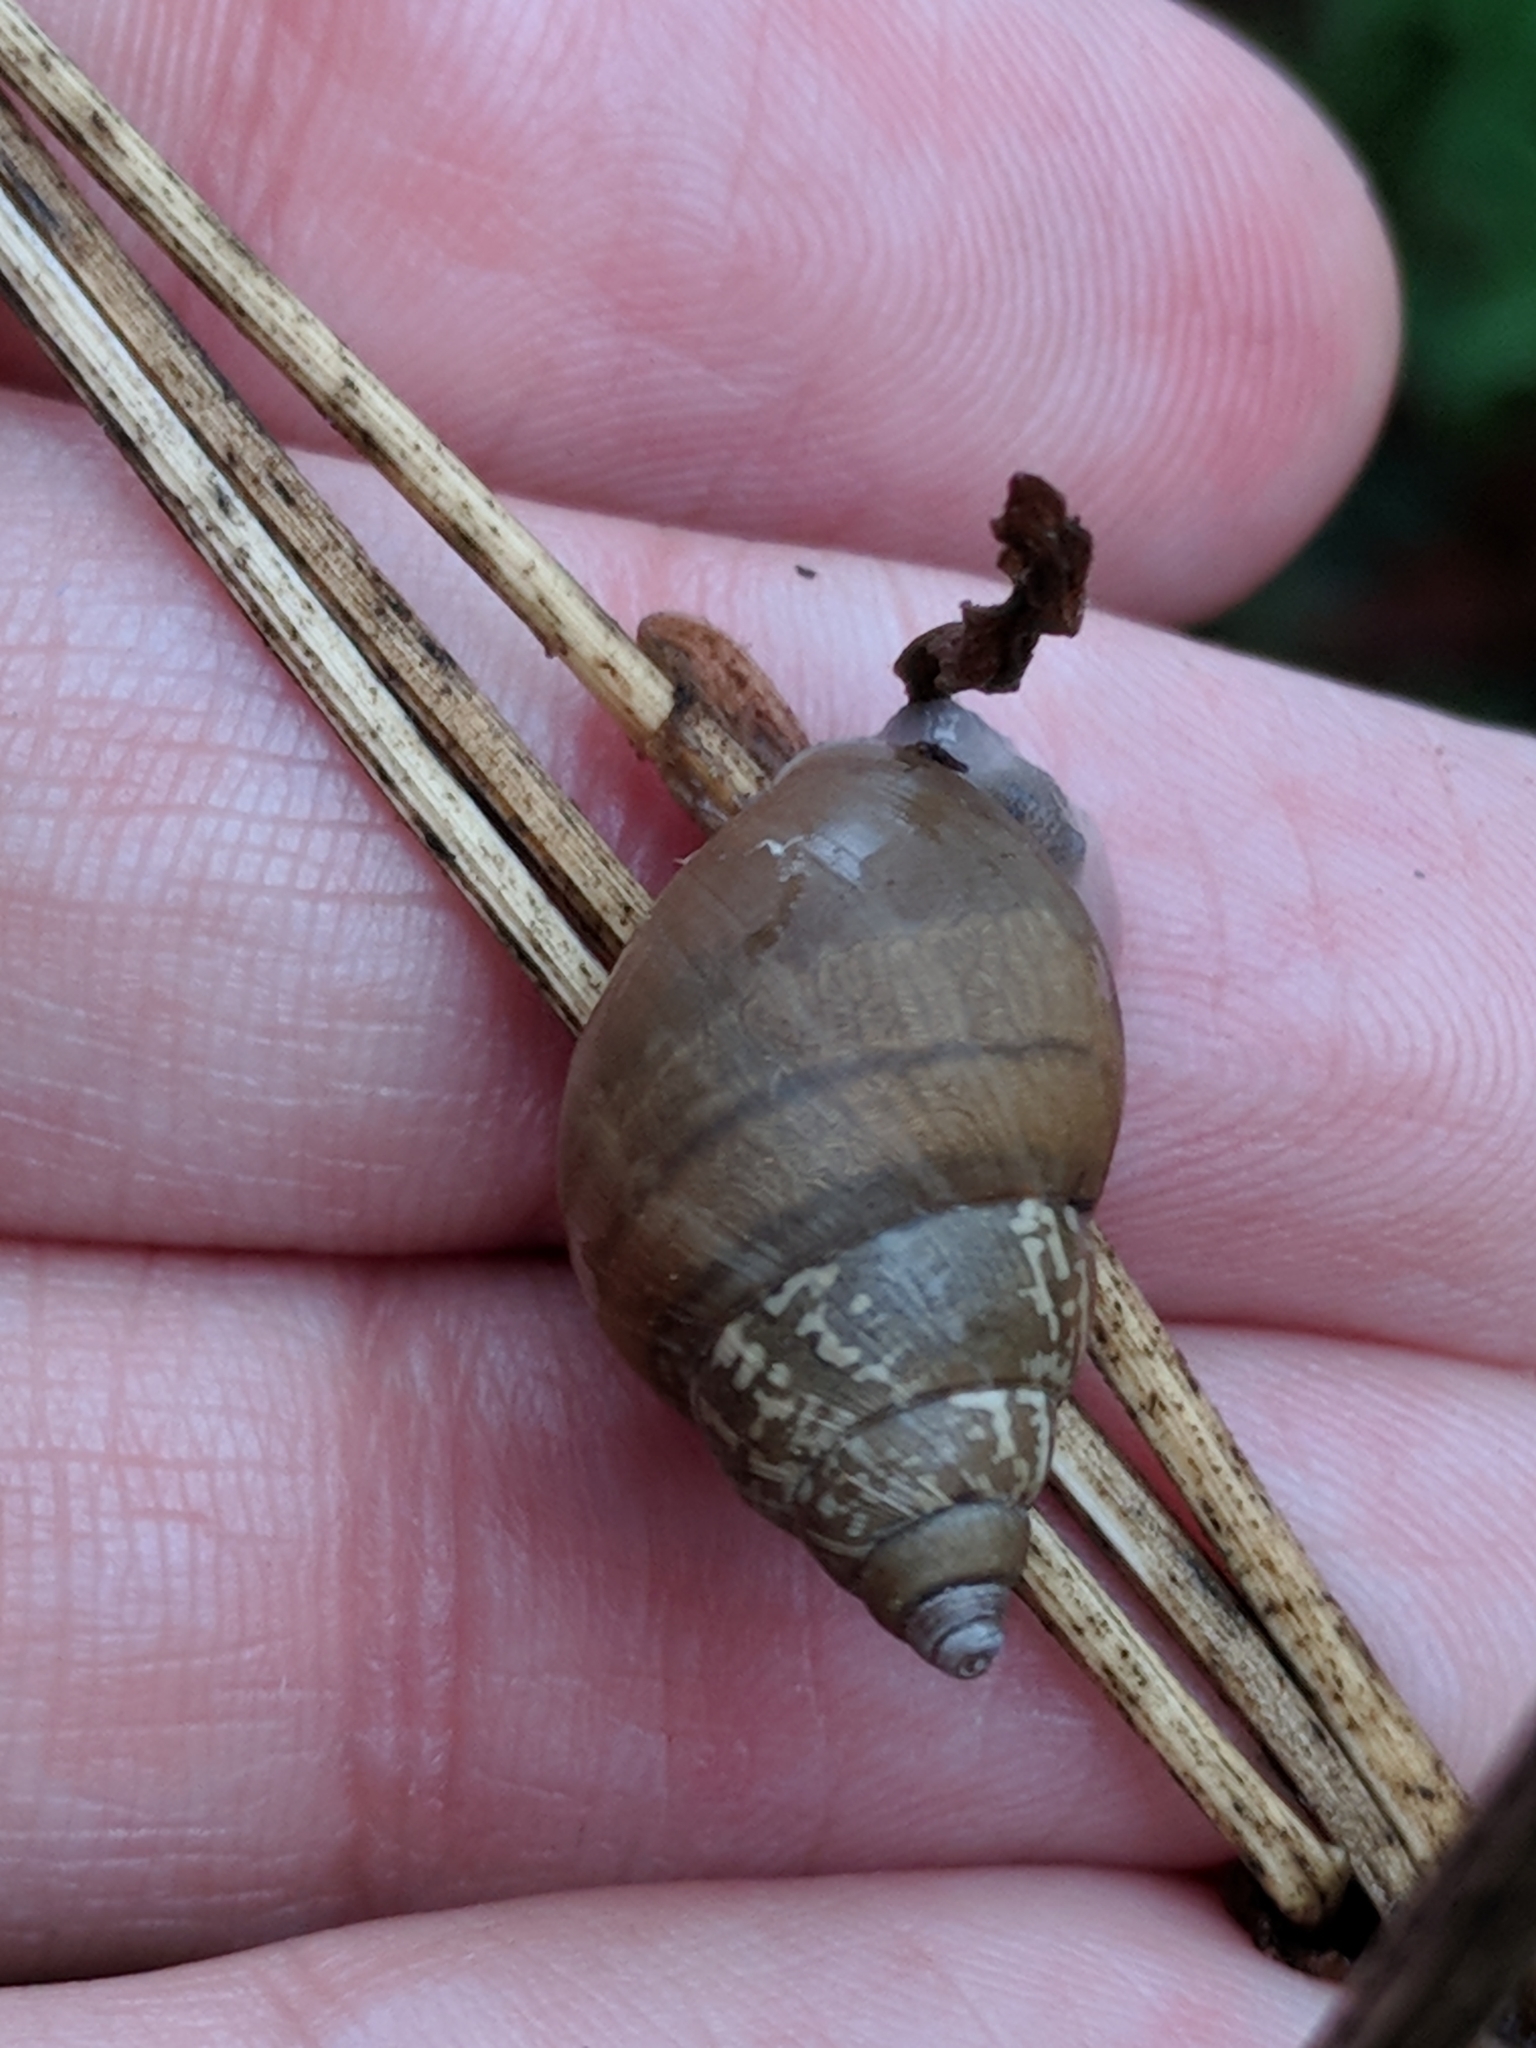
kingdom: Animalia
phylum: Mollusca
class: Gastropoda
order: Stylommatophora
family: Bulimulidae
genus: Rabdotus
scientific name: Rabdotus dealbatus
